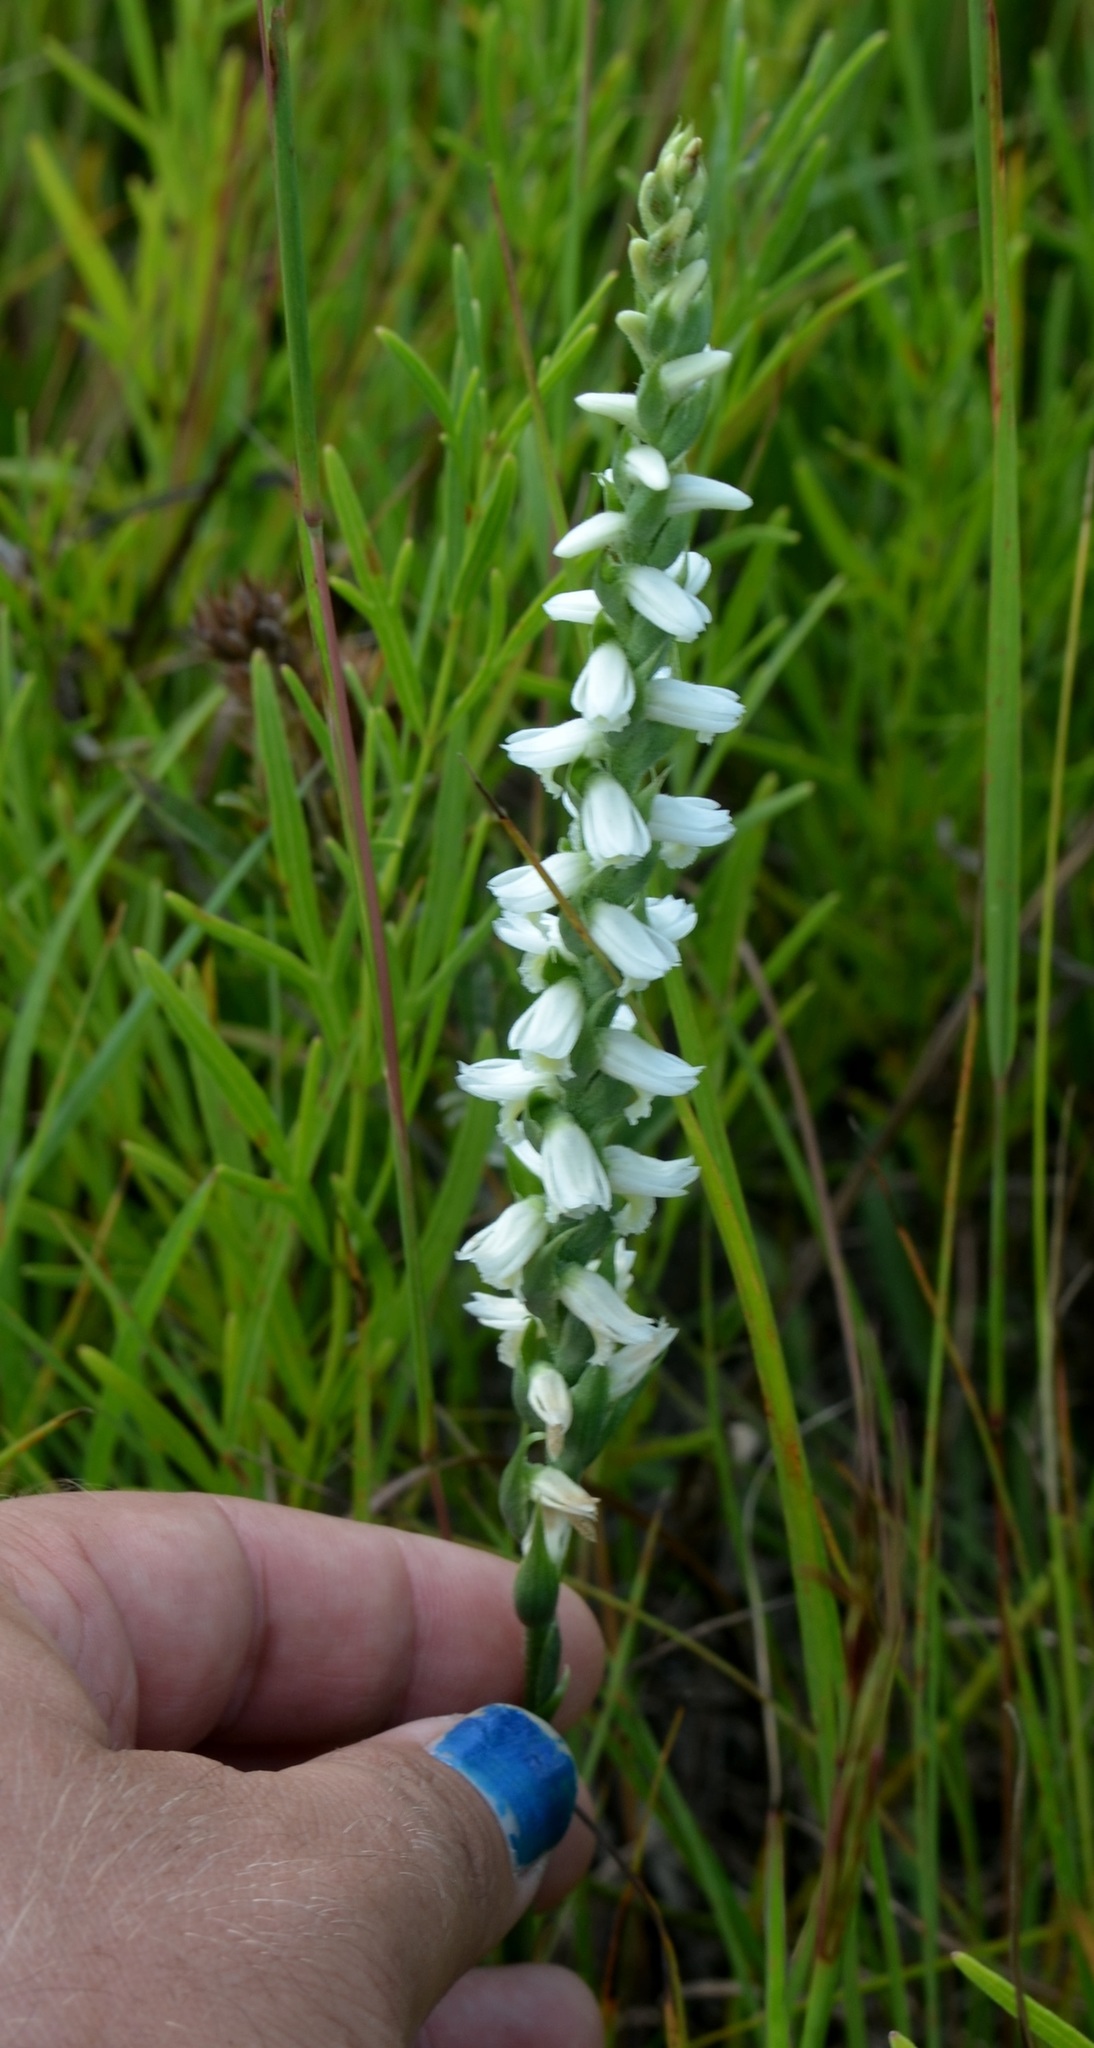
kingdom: Plantae
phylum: Tracheophyta
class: Liliopsida
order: Asparagales
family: Orchidaceae
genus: Spiranthes
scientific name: Spiranthes magnicamporum
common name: Great plains ladies'-tresses
